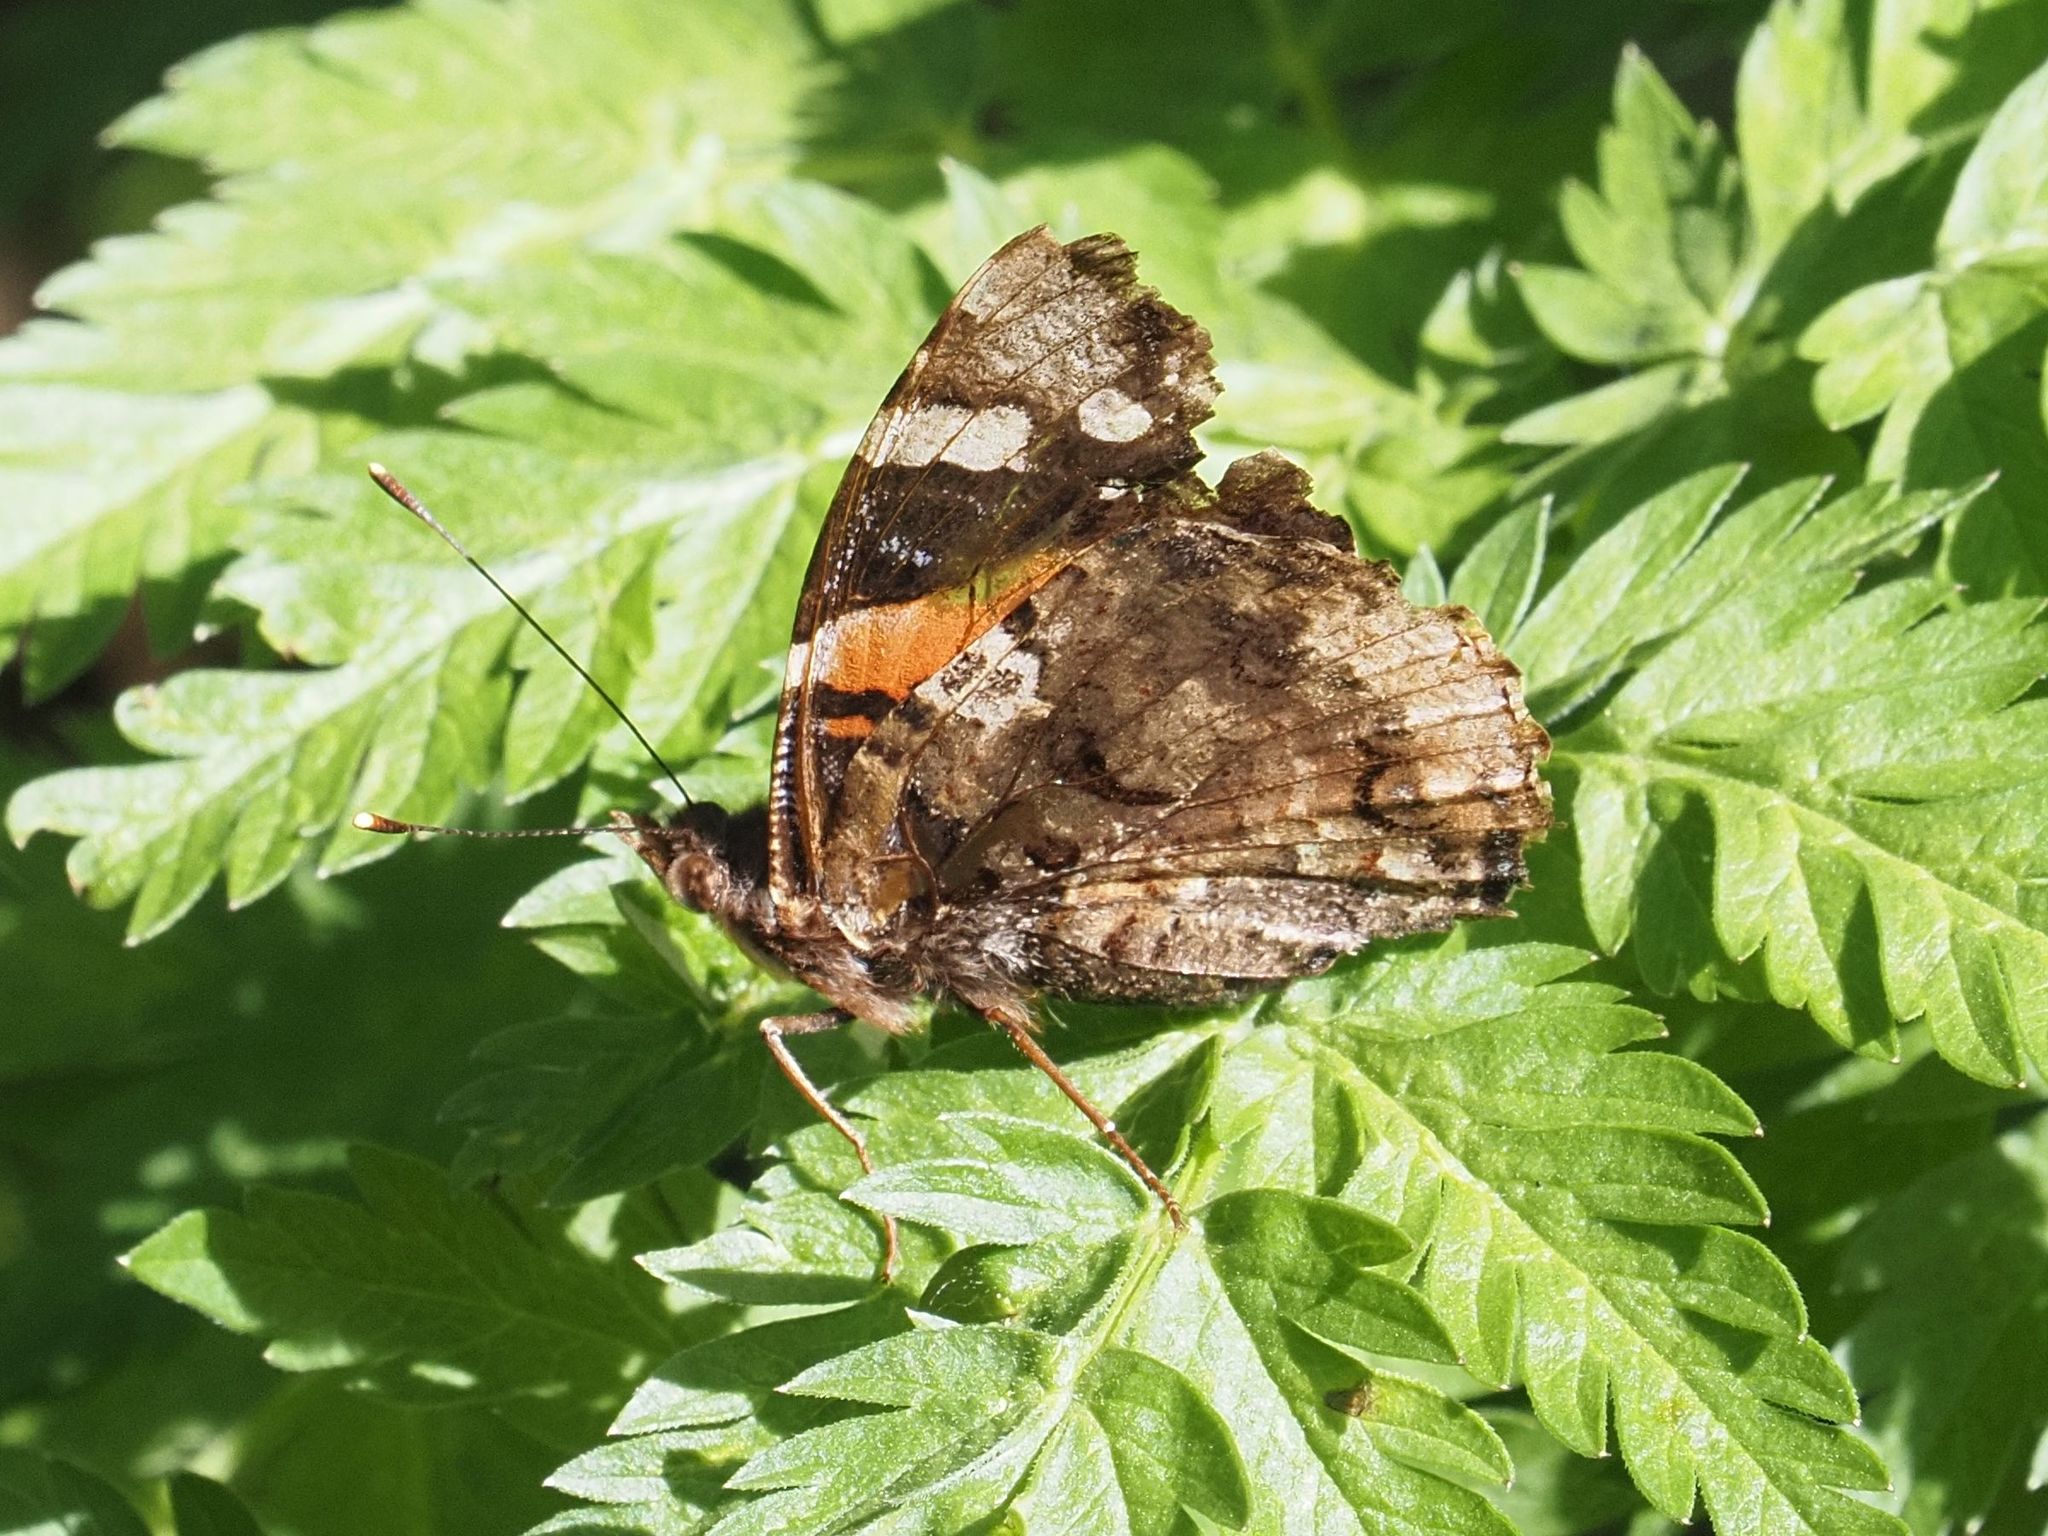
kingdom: Animalia
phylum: Arthropoda
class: Insecta
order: Lepidoptera
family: Nymphalidae
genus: Vanessa
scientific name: Vanessa atalanta
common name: Red admiral
